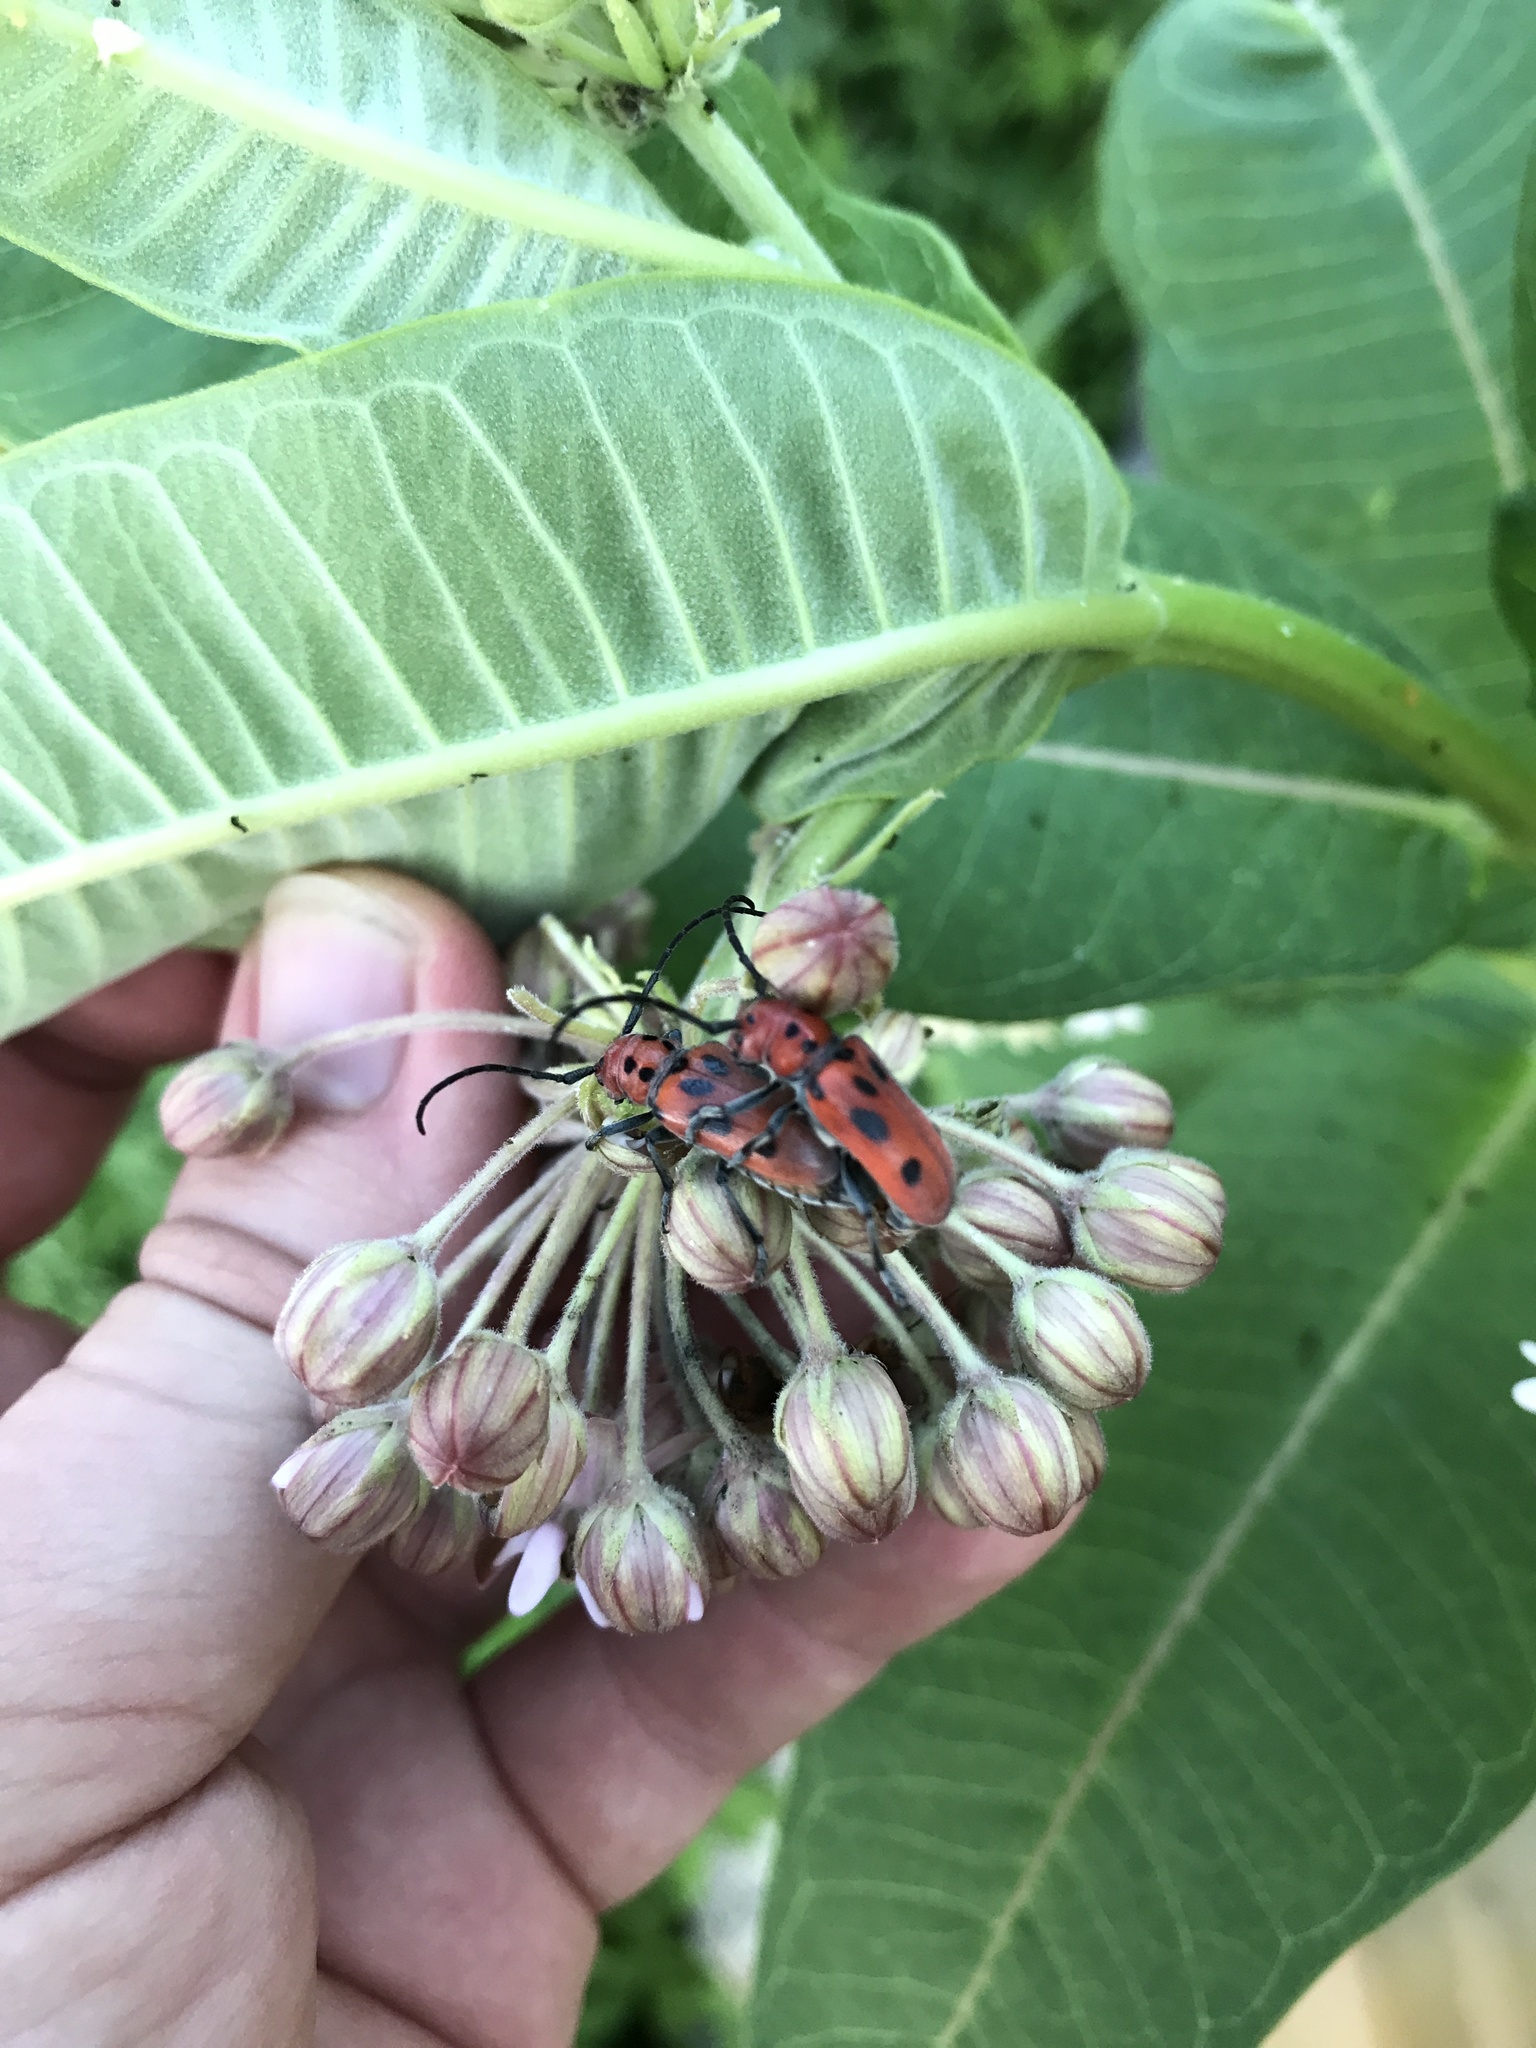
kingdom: Animalia
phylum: Arthropoda
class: Insecta
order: Coleoptera
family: Cerambycidae
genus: Tetraopes
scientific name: Tetraopes tetrophthalmus
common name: Red milkweed beetle
